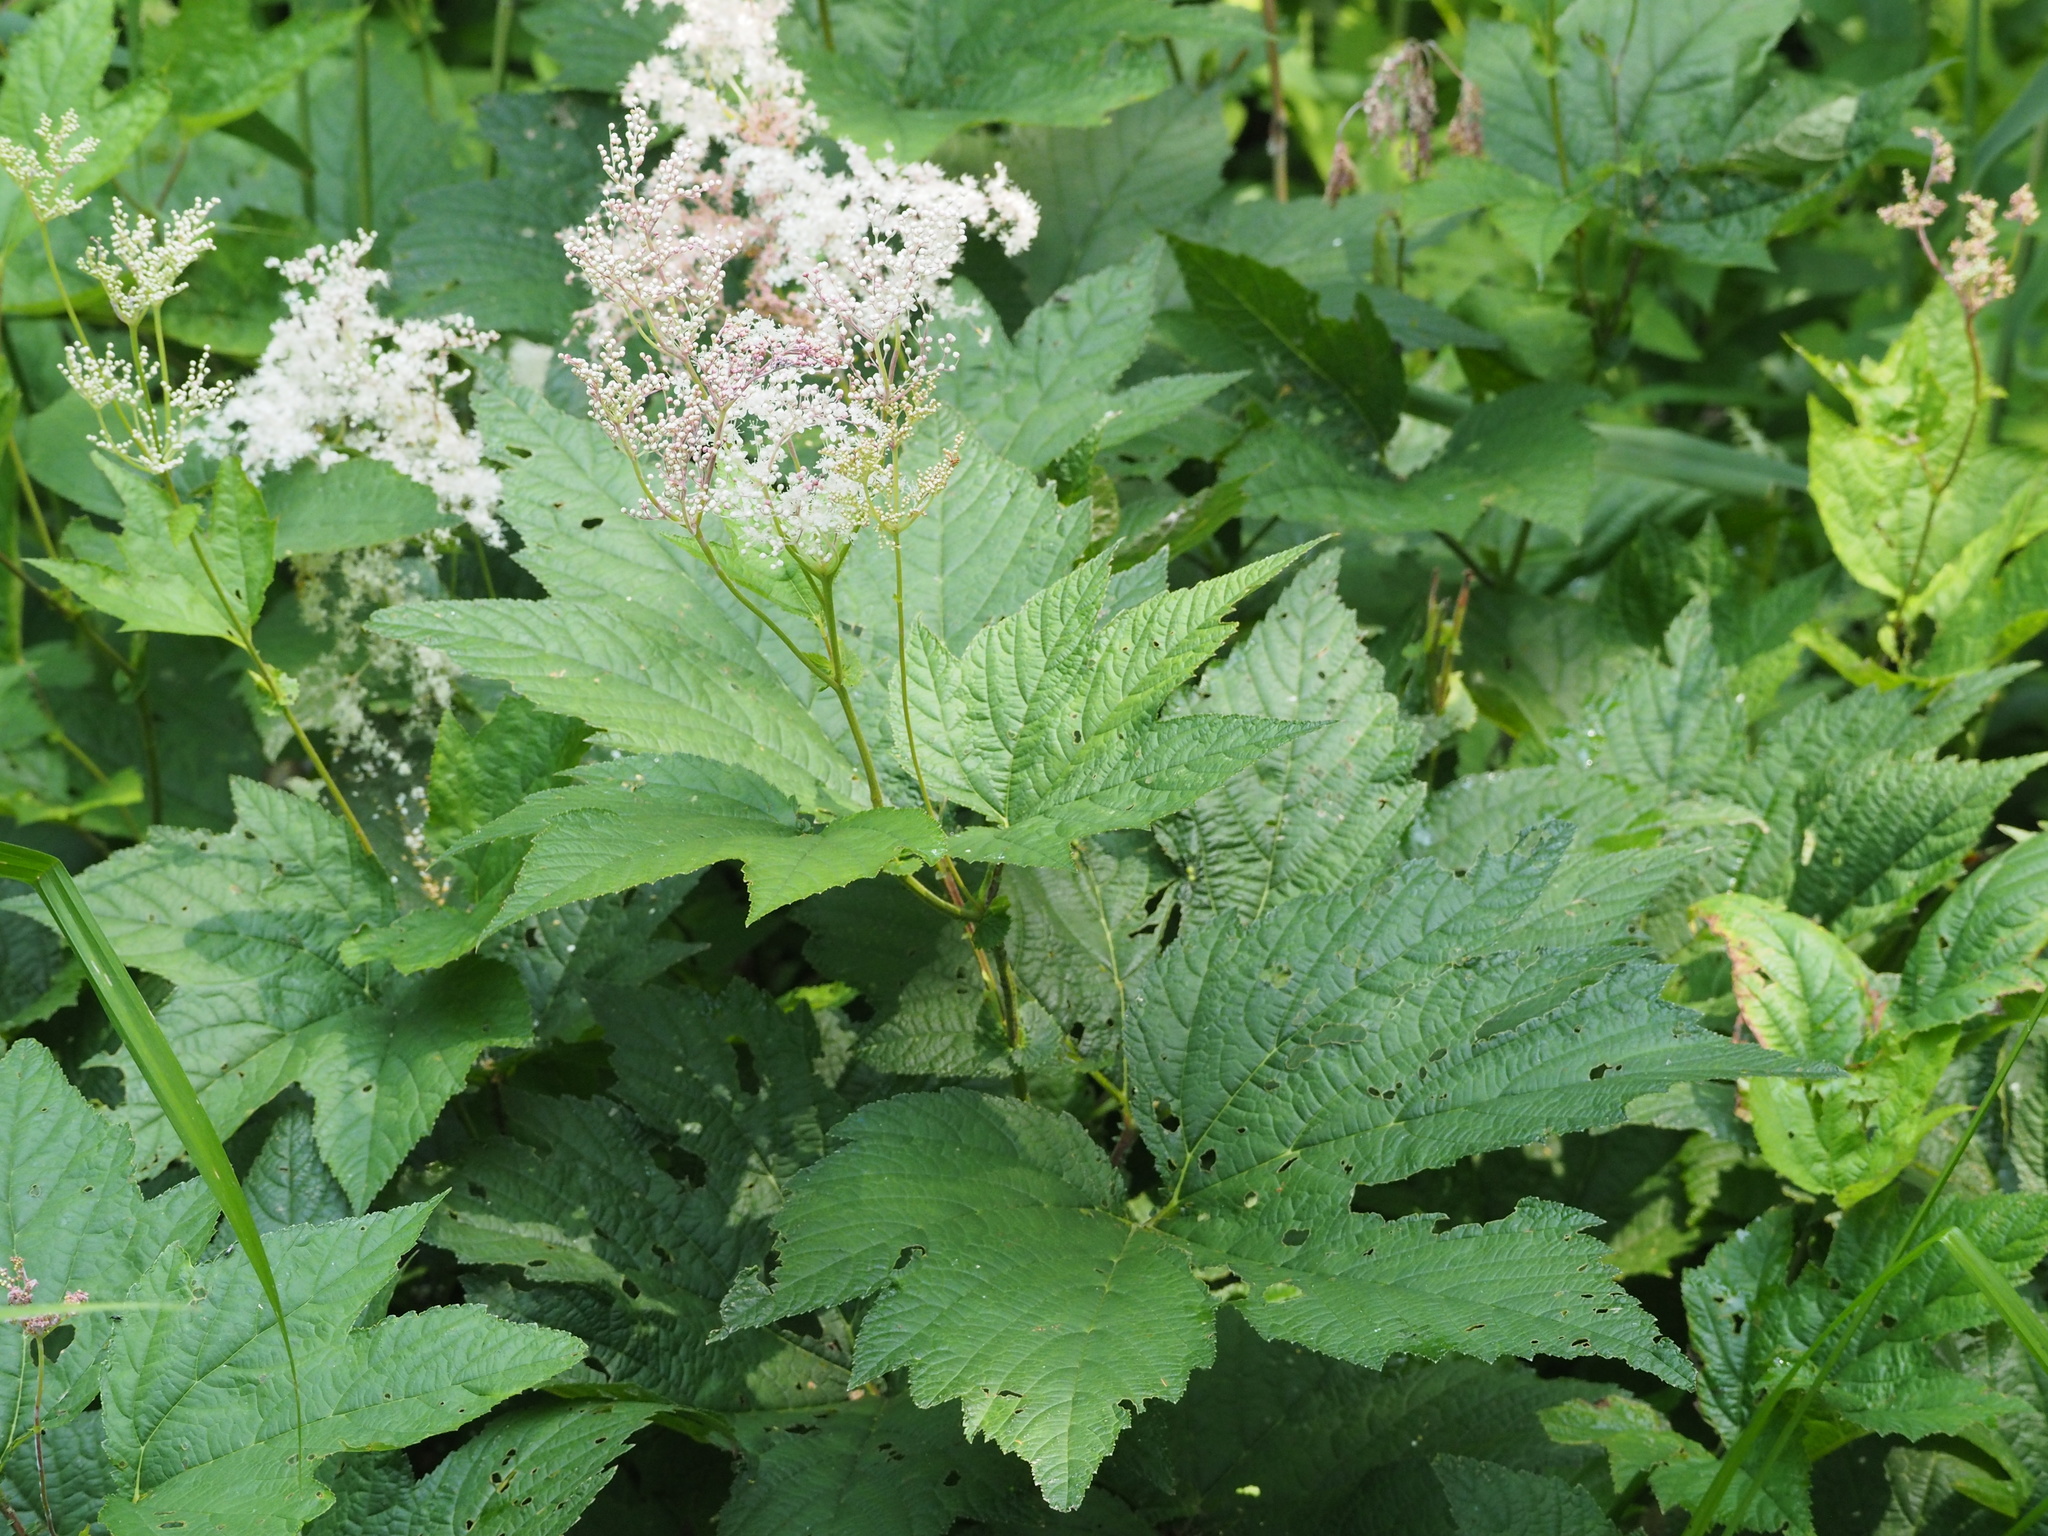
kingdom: Plantae
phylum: Tracheophyta
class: Magnoliopsida
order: Rosales
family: Rosaceae
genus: Filipendula
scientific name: Filipendula camtschatica
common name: Giant meadowsweet
